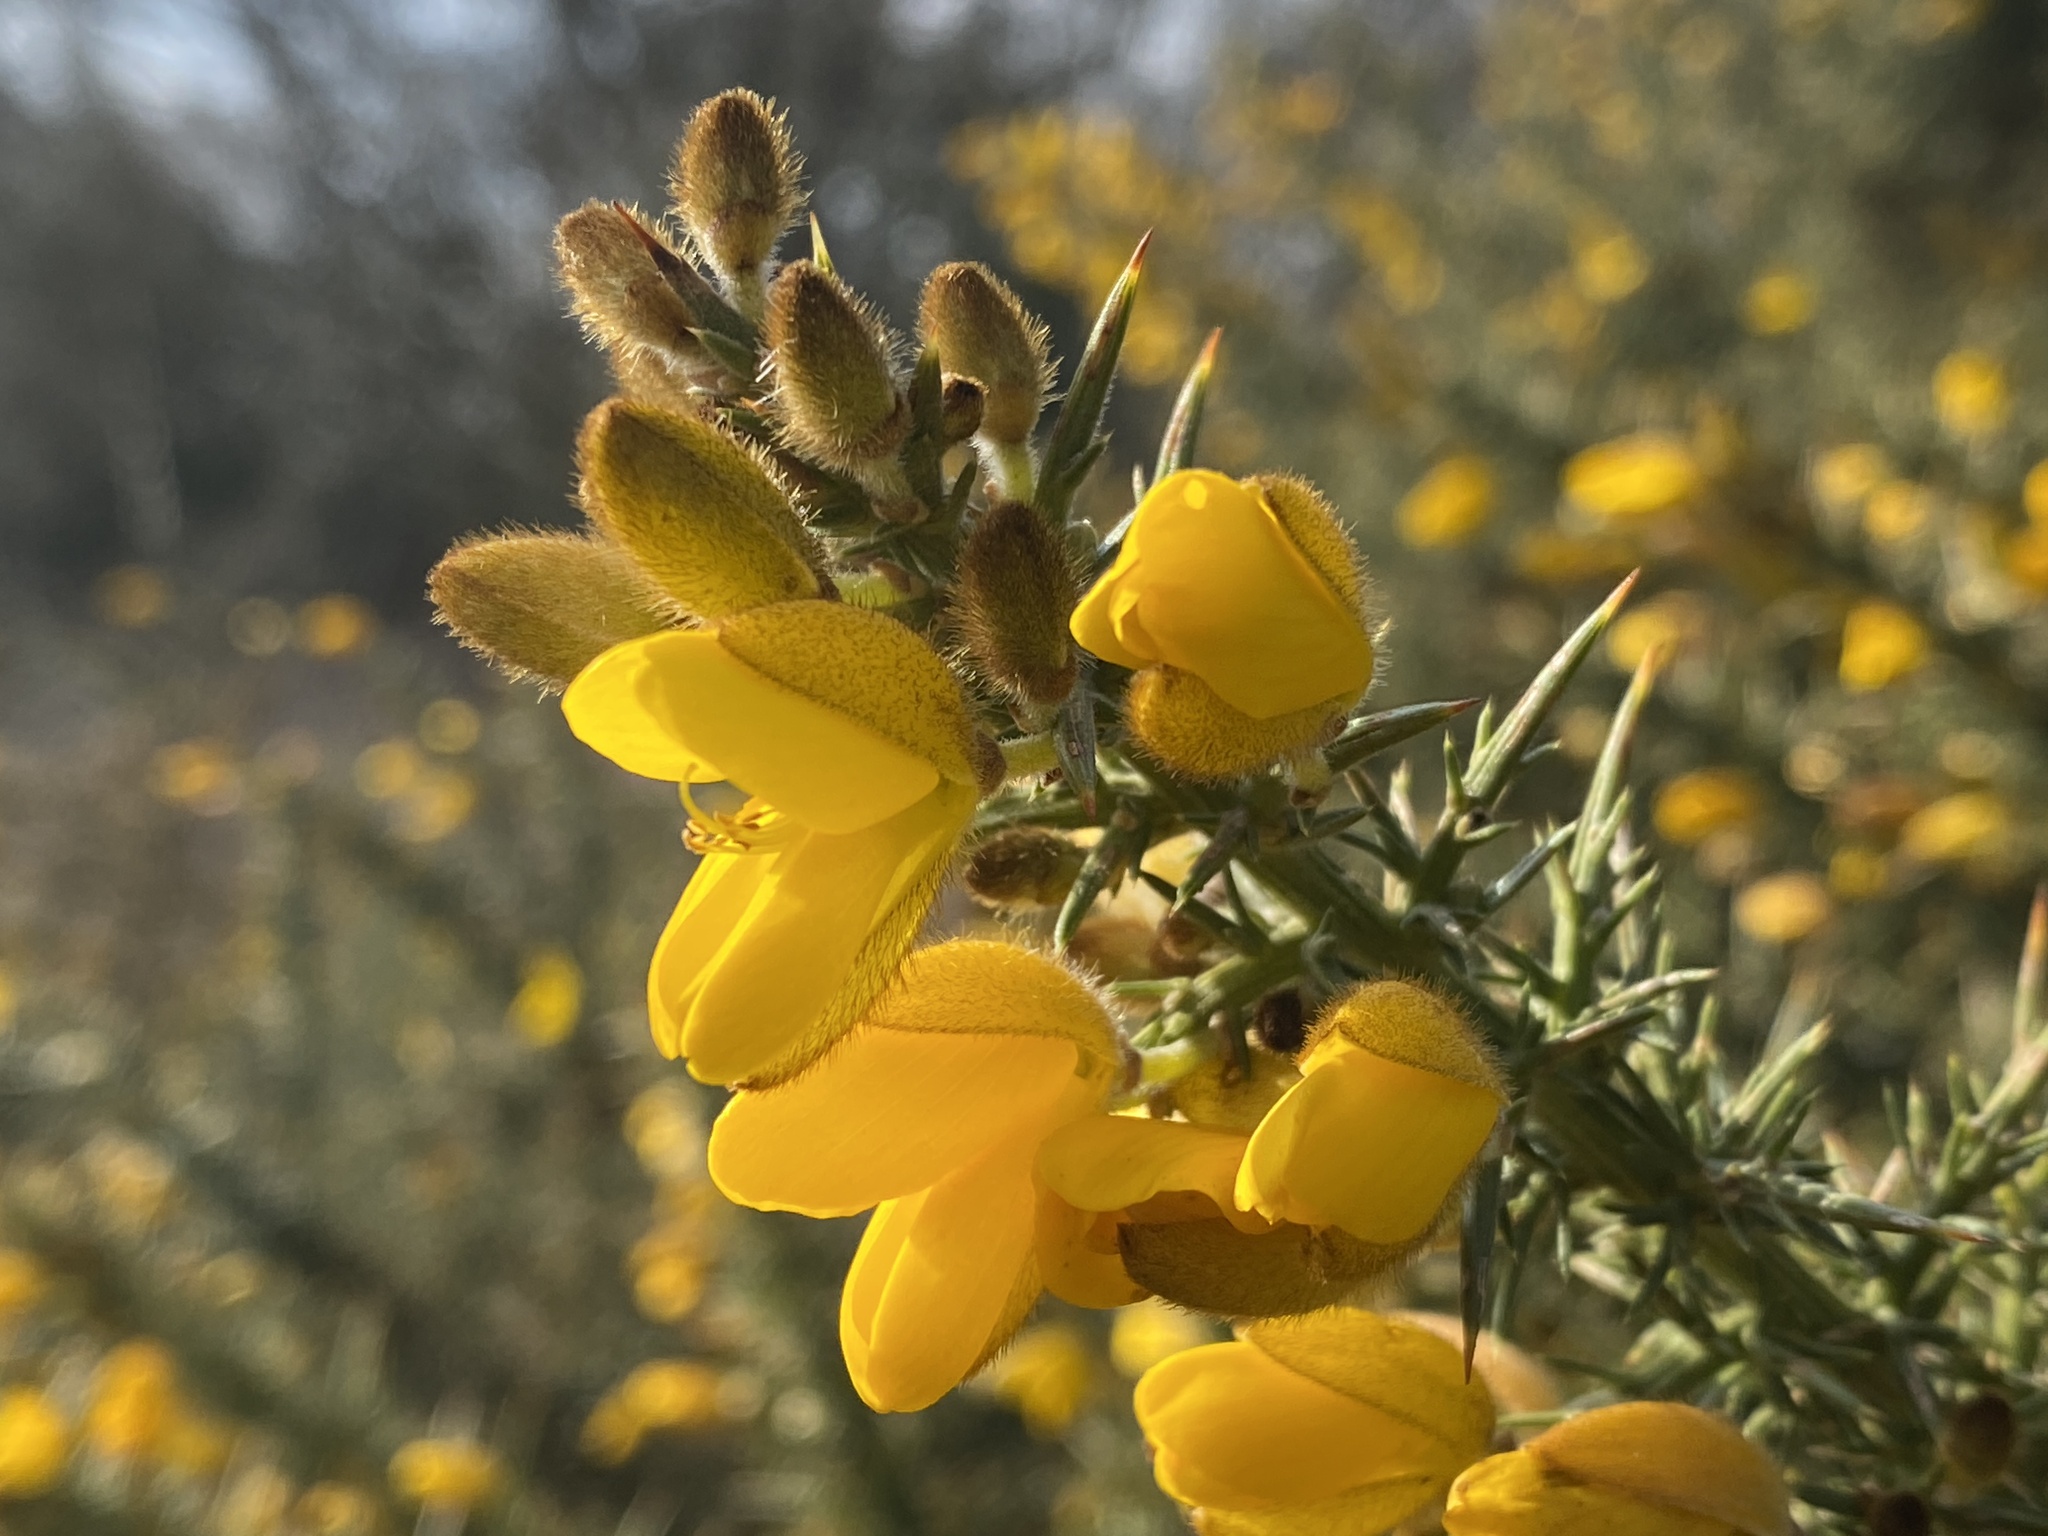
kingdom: Plantae
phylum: Tracheophyta
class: Magnoliopsida
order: Fabales
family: Fabaceae
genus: Ulex
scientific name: Ulex europaeus
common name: Common gorse
